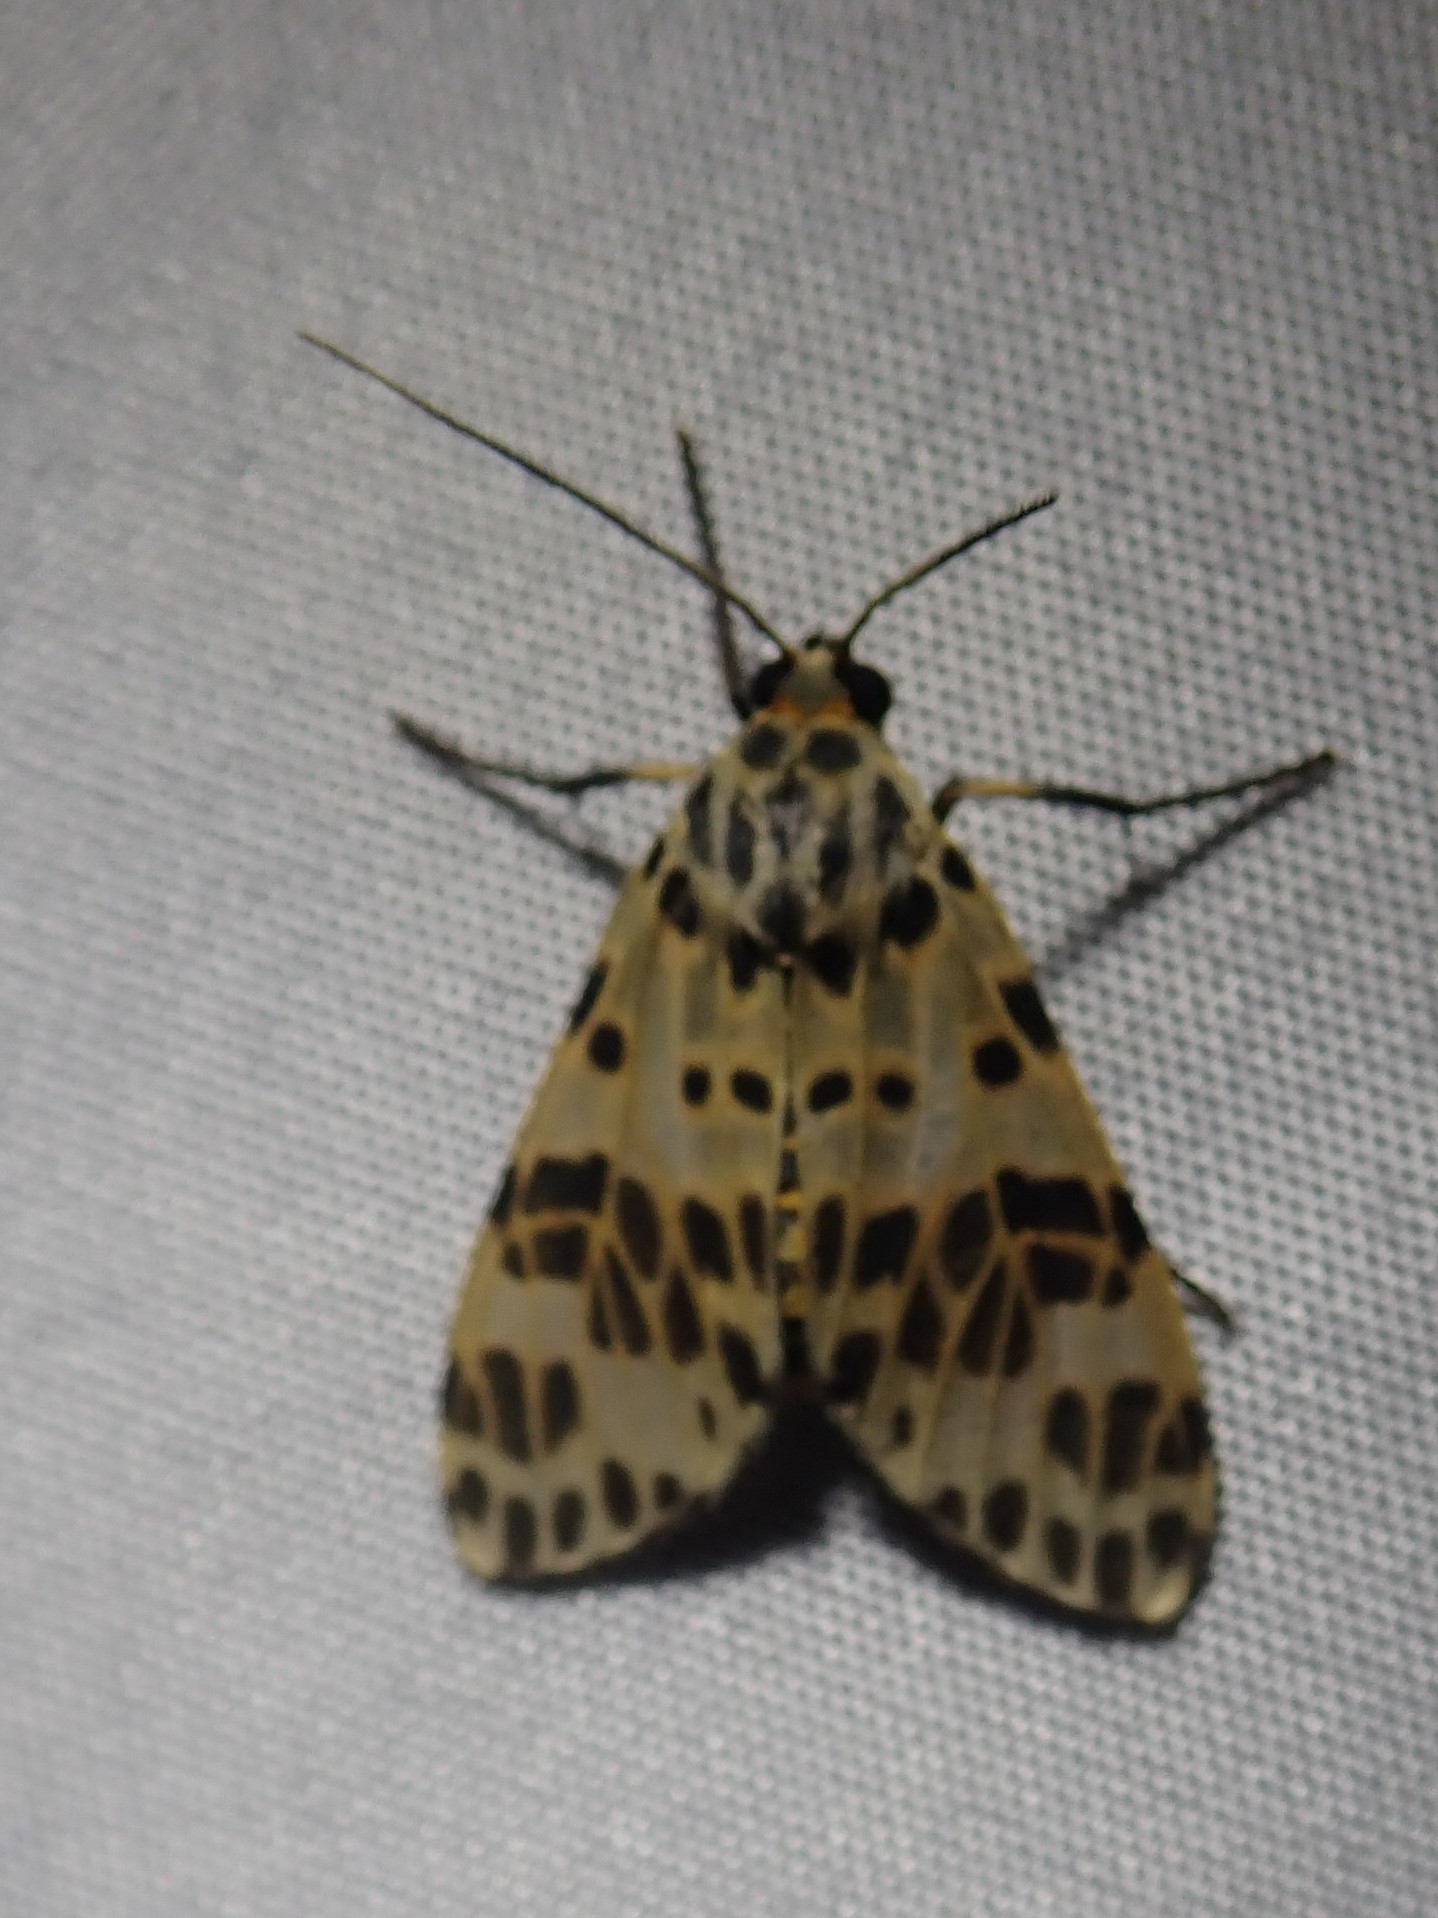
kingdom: Animalia
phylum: Arthropoda
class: Insecta
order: Lepidoptera
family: Erebidae
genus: Heliura
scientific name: Heliura thysbodes
